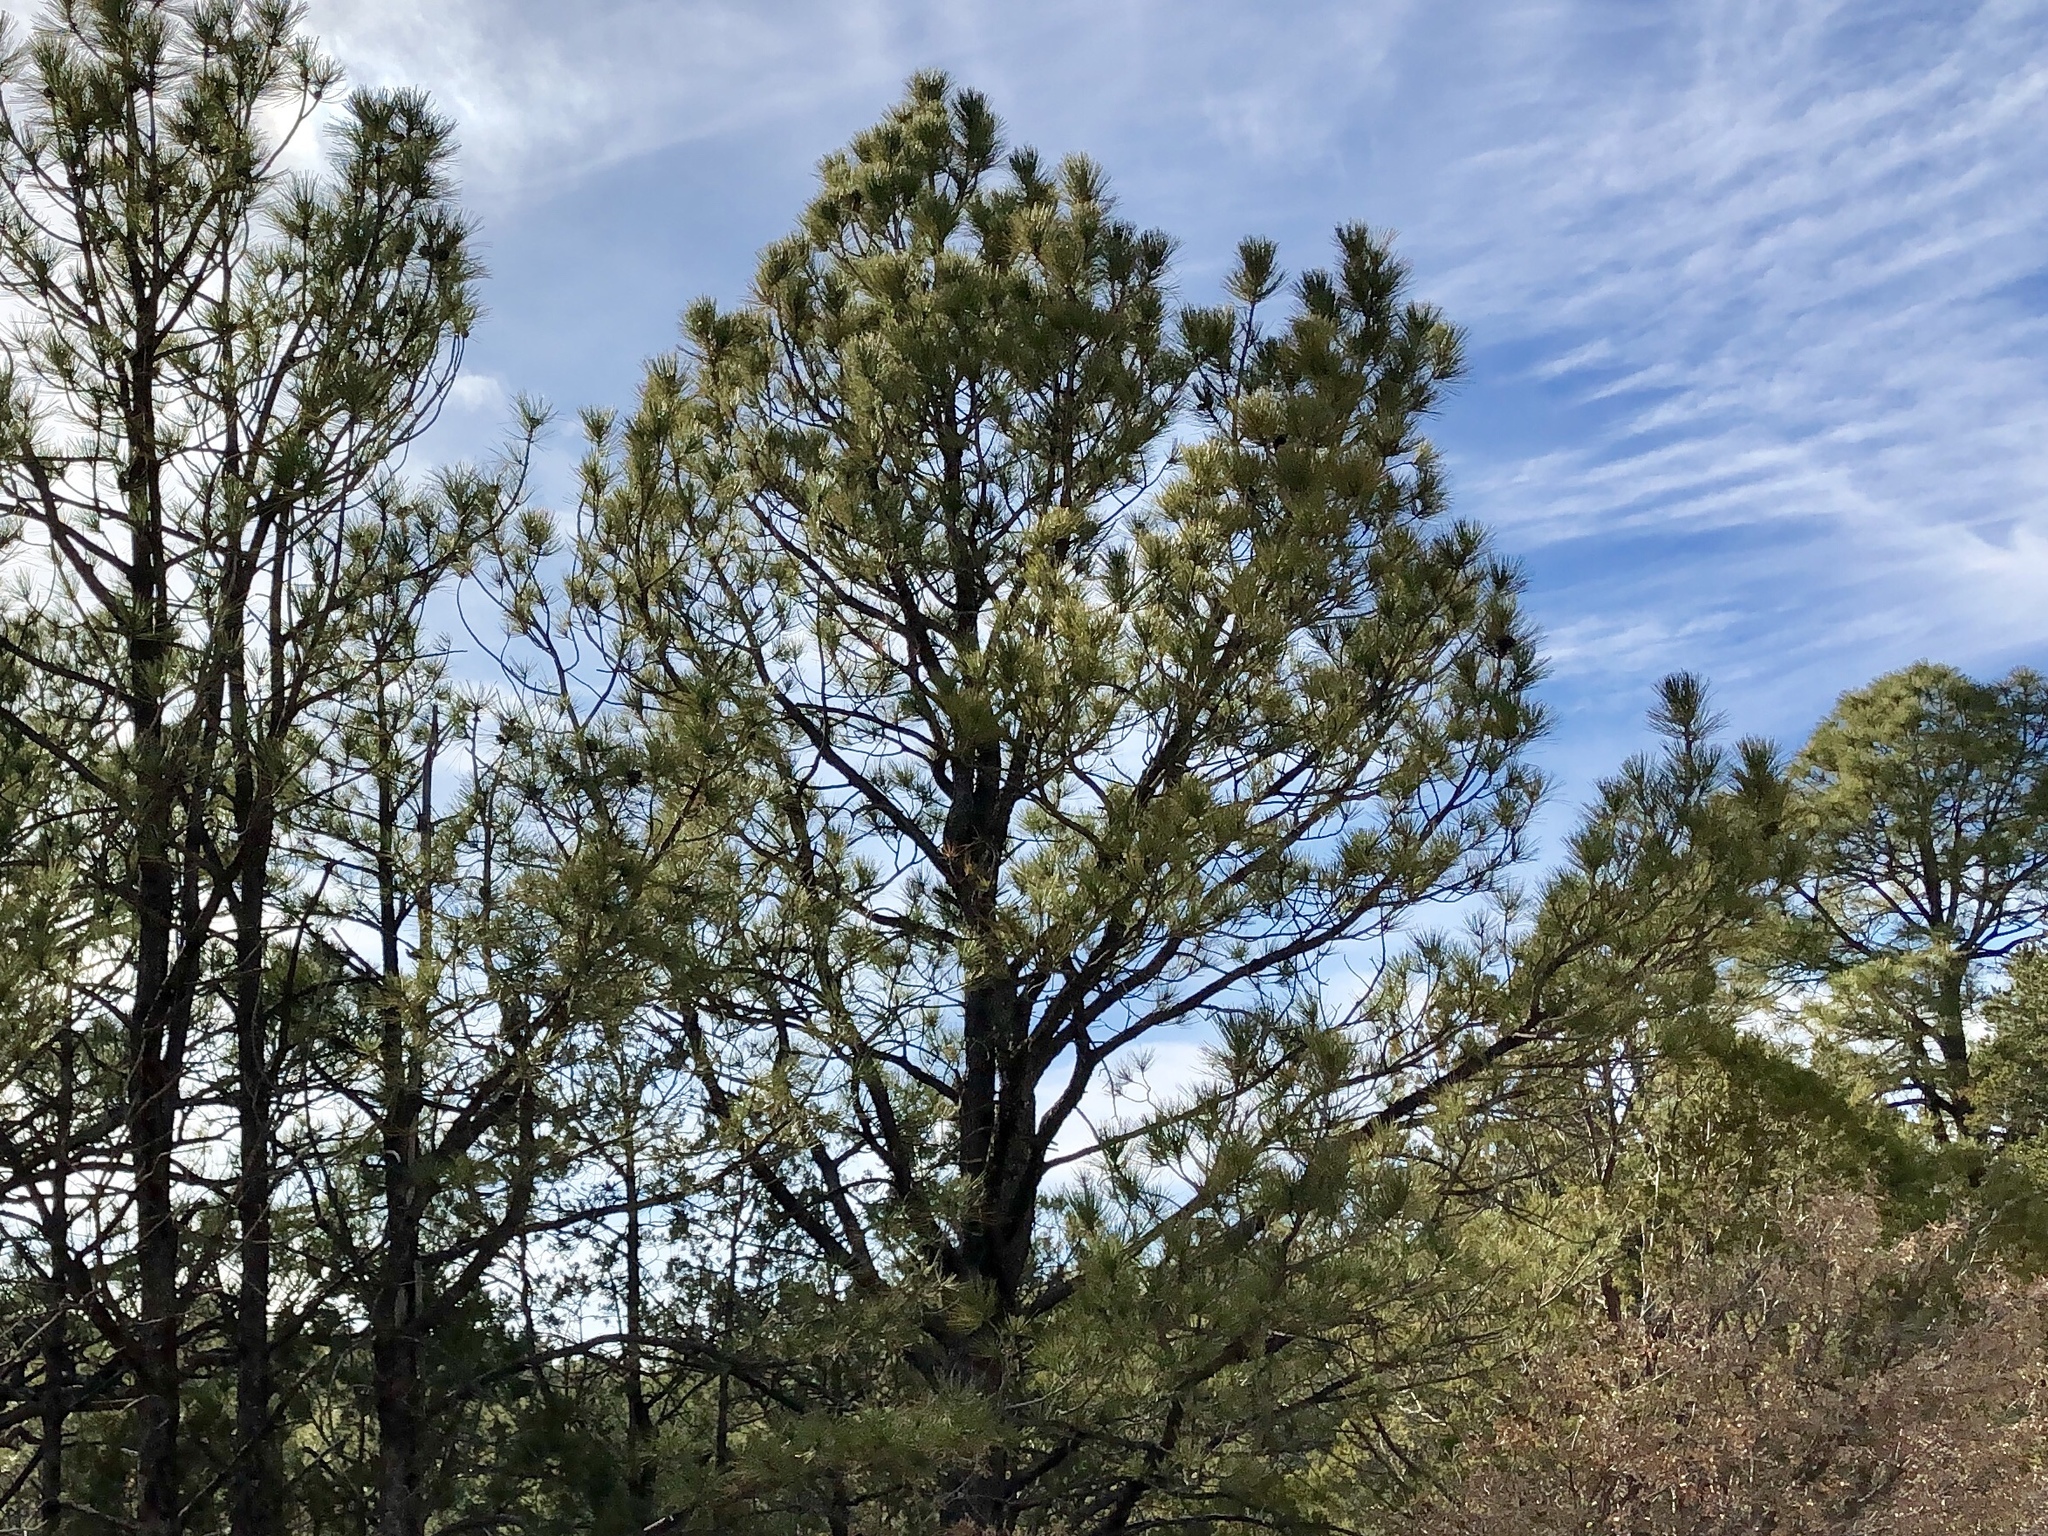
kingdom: Plantae
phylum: Tracheophyta
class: Pinopsida
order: Pinales
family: Pinaceae
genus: Pinus
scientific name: Pinus ponderosa
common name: Western yellow-pine
